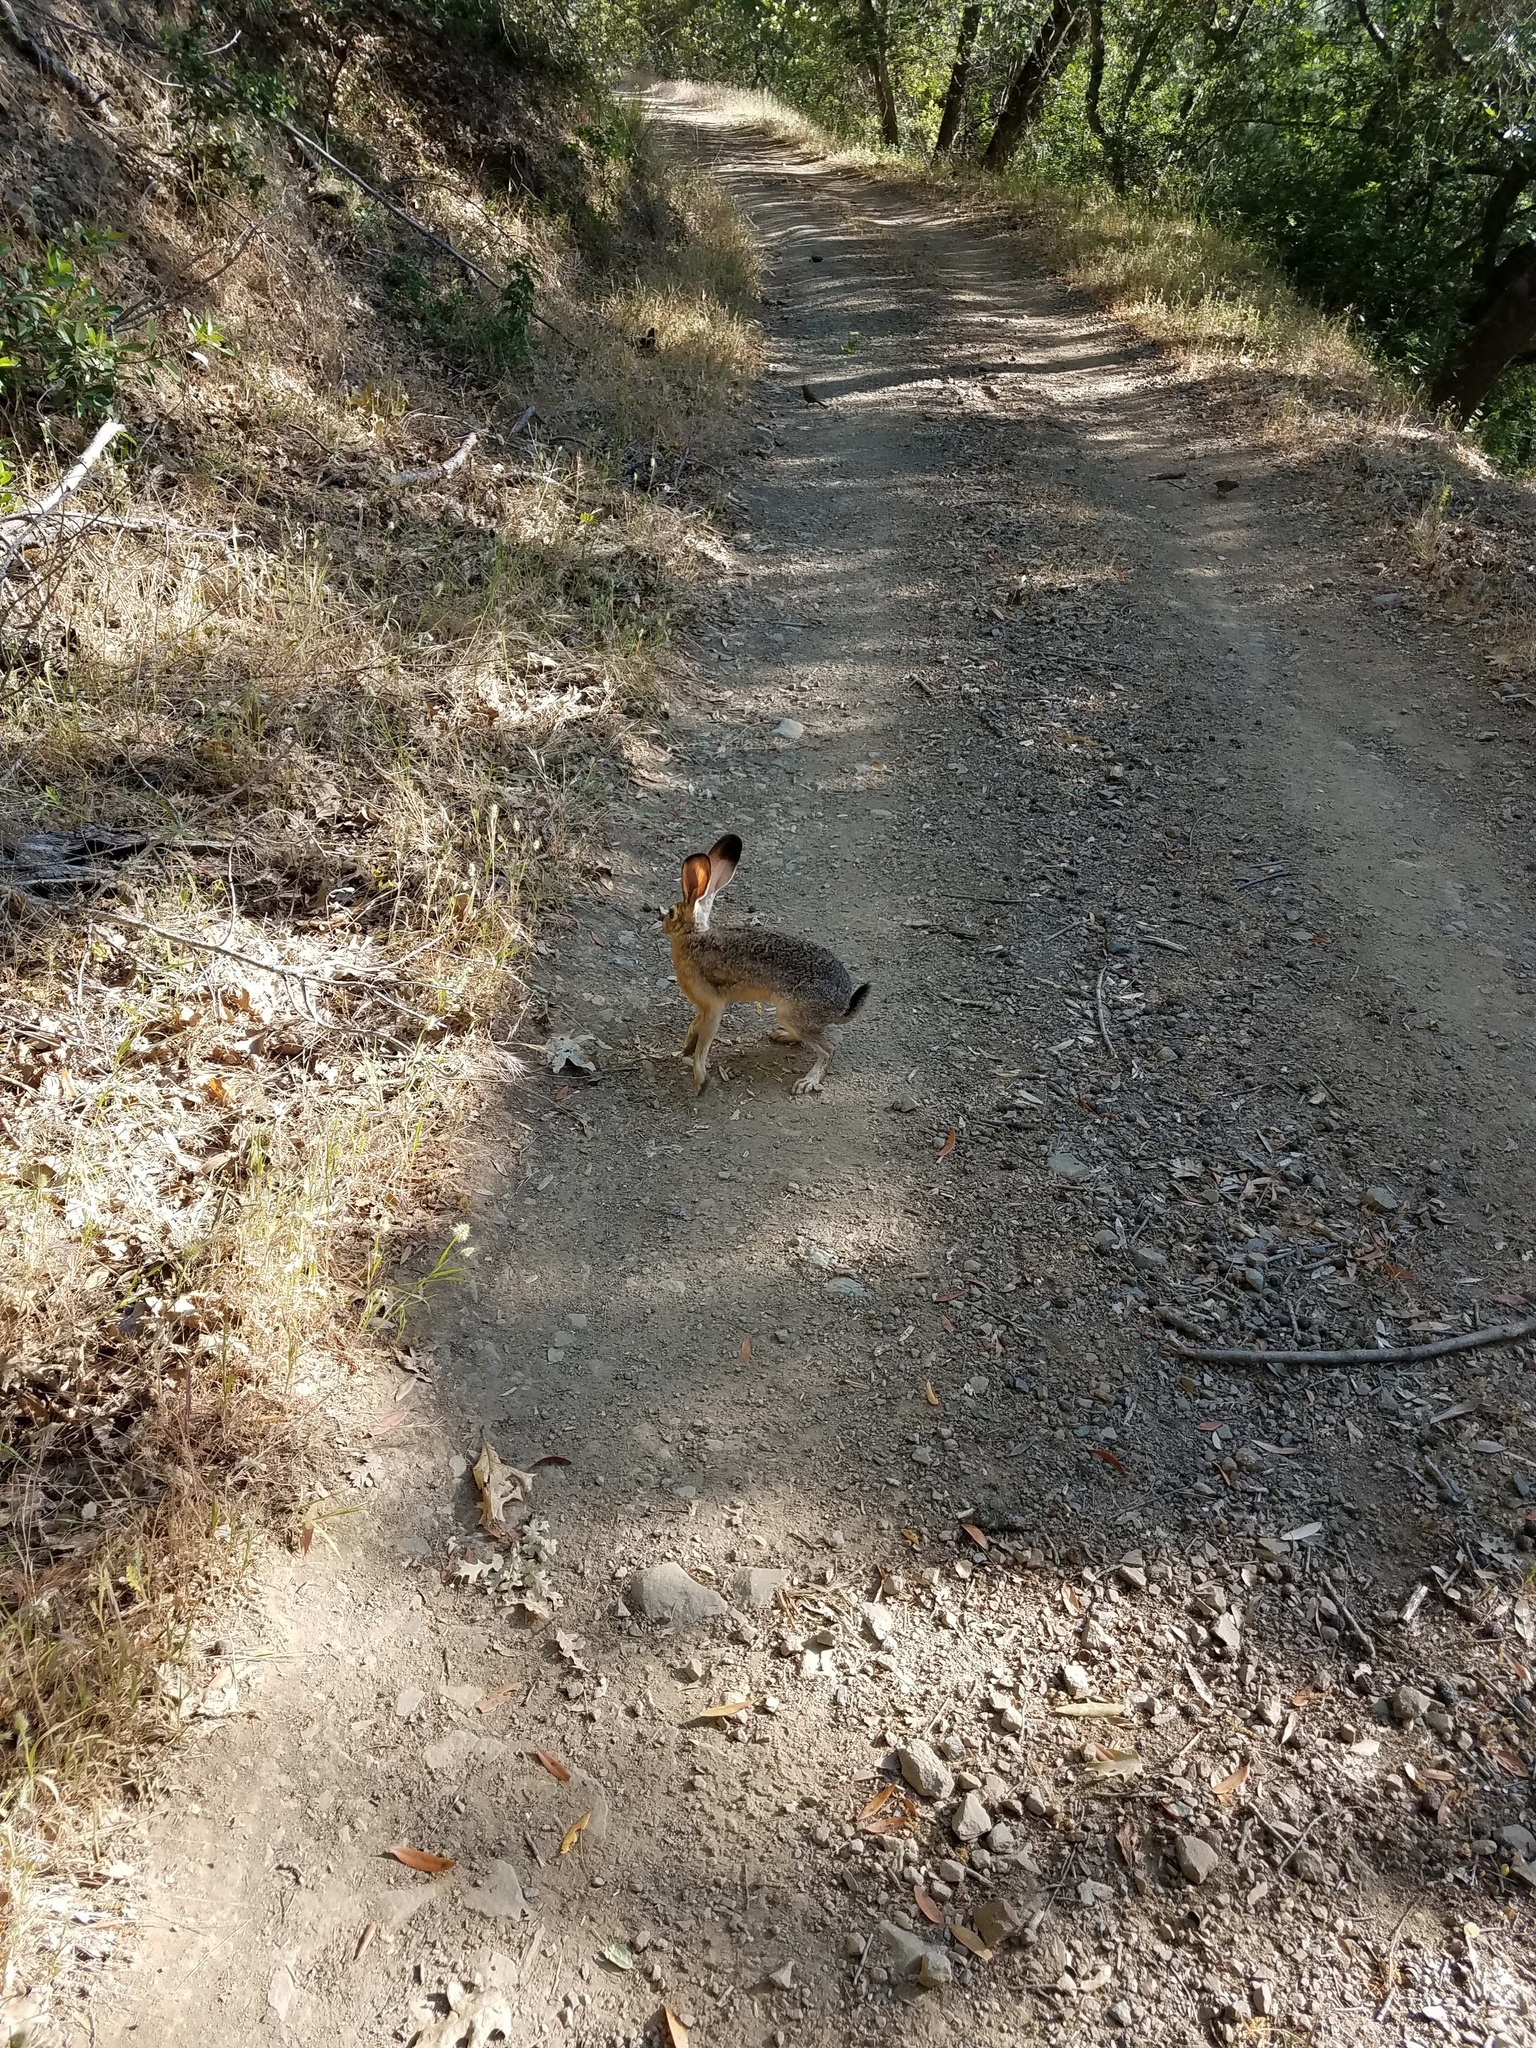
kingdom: Animalia
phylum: Chordata
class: Mammalia
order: Lagomorpha
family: Leporidae
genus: Lepus
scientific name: Lepus californicus
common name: Black-tailed jackrabbit
